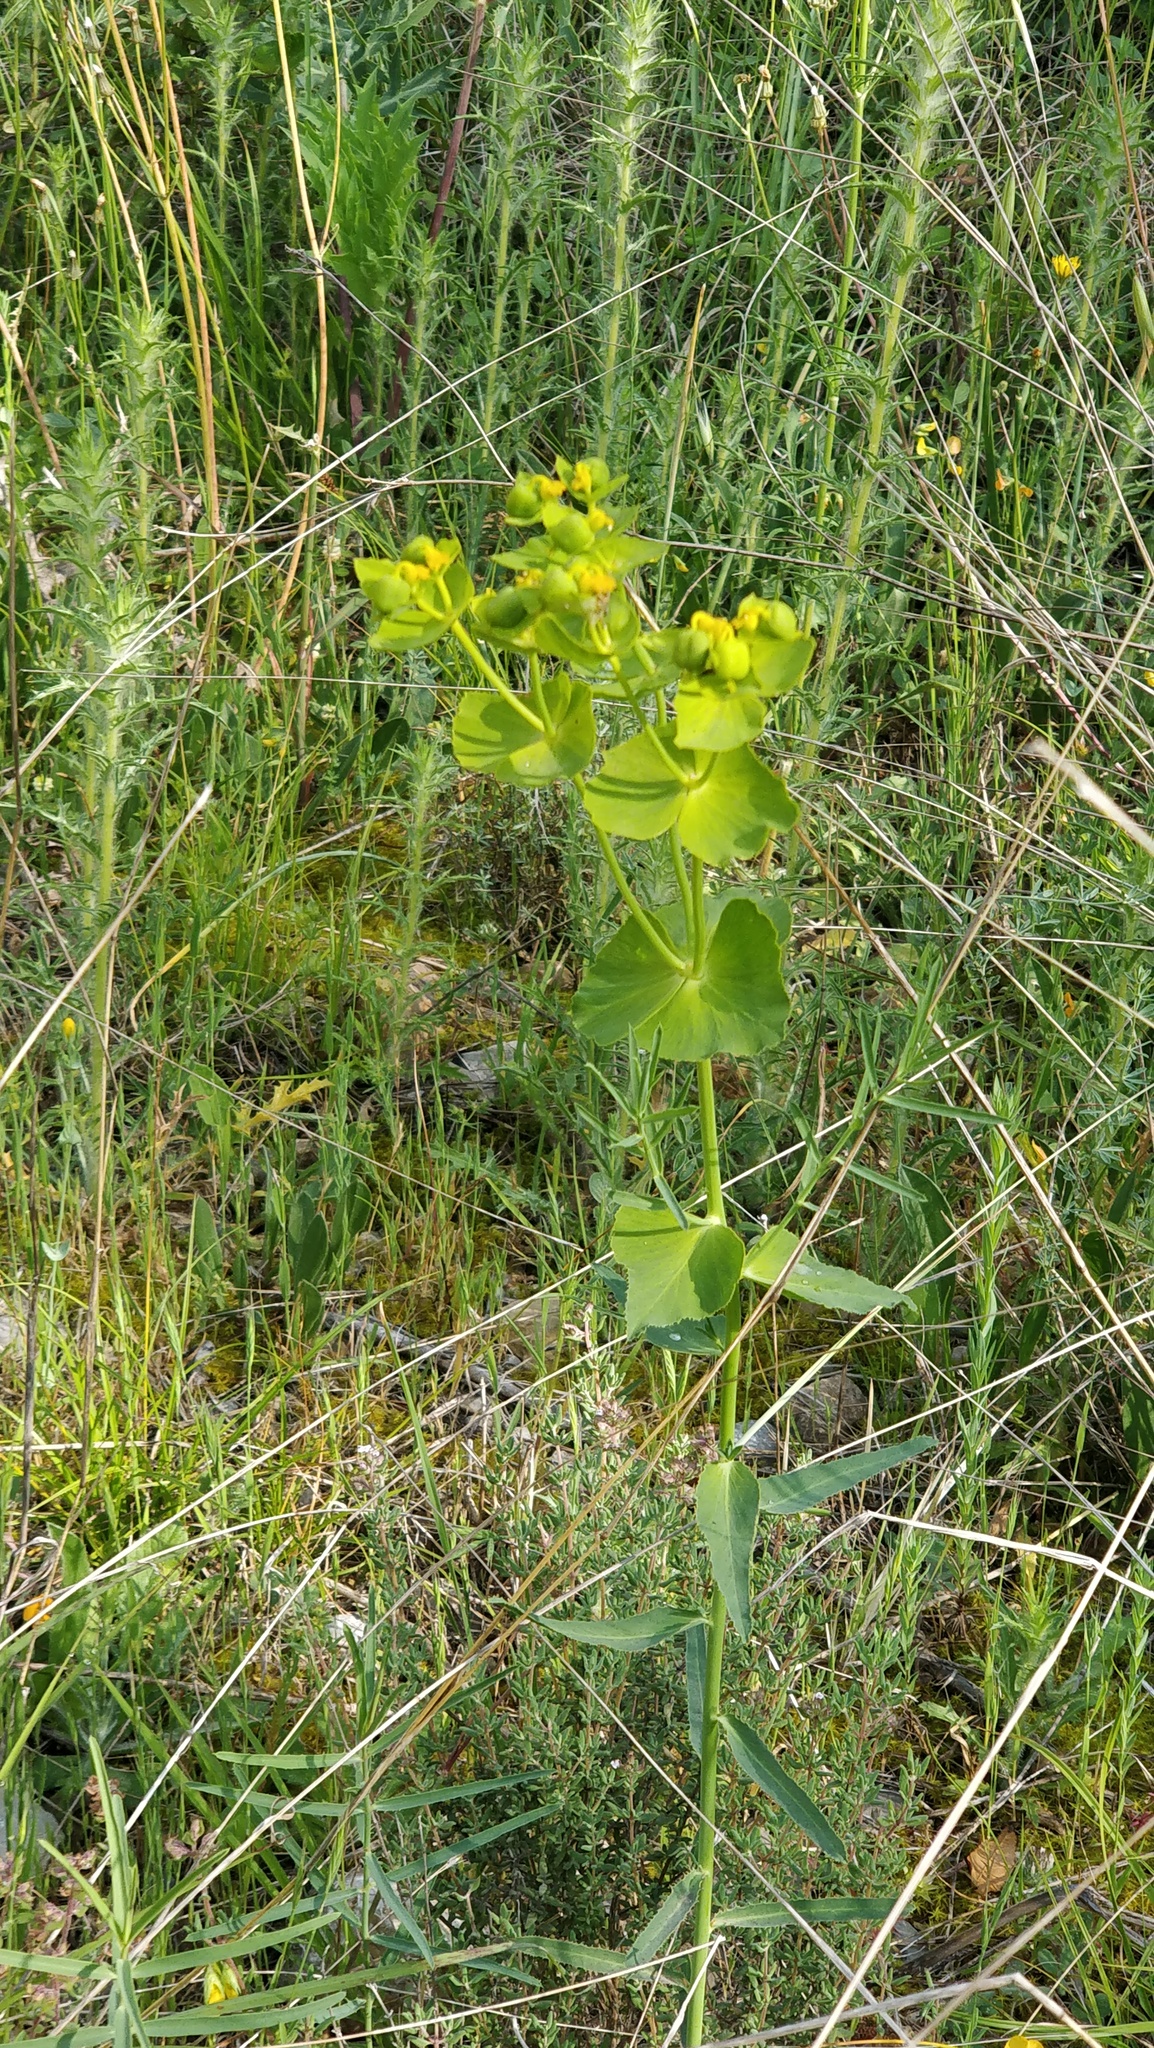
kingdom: Plantae
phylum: Tracheophyta
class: Magnoliopsida
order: Malpighiales
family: Euphorbiaceae
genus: Euphorbia
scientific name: Euphorbia serrata
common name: Serrate spurge
